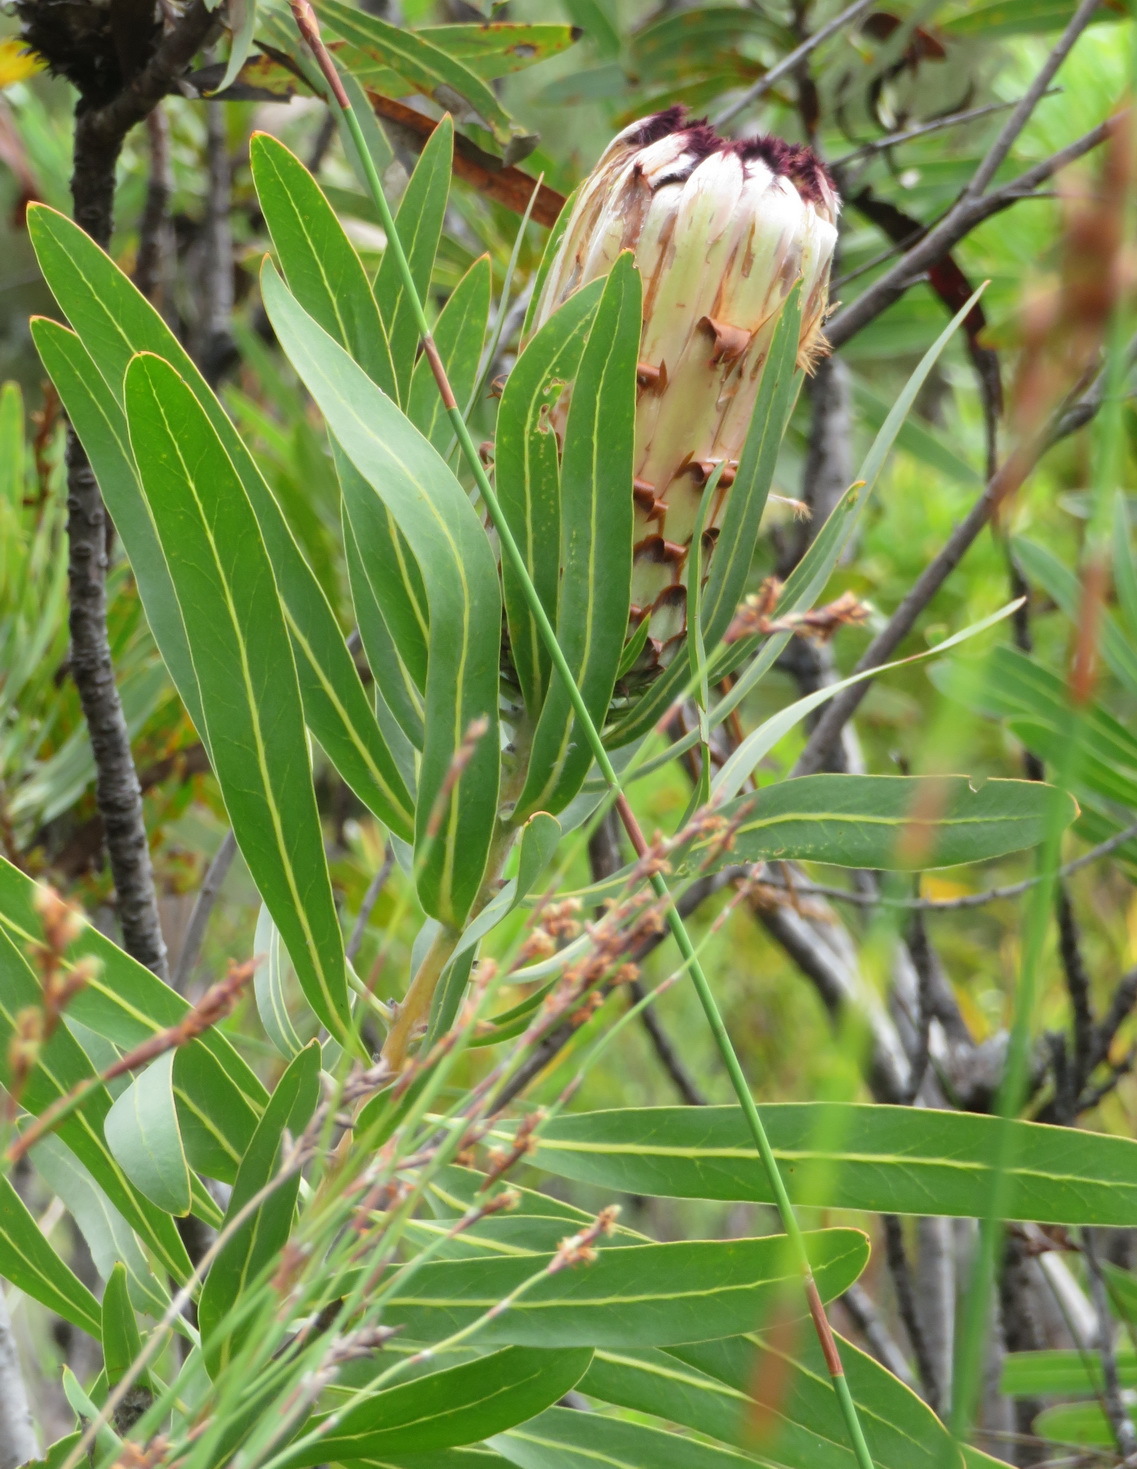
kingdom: Plantae
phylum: Tracheophyta
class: Magnoliopsida
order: Proteales
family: Proteaceae
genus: Protea
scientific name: Protea neriifolia
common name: Blue sugarbush
